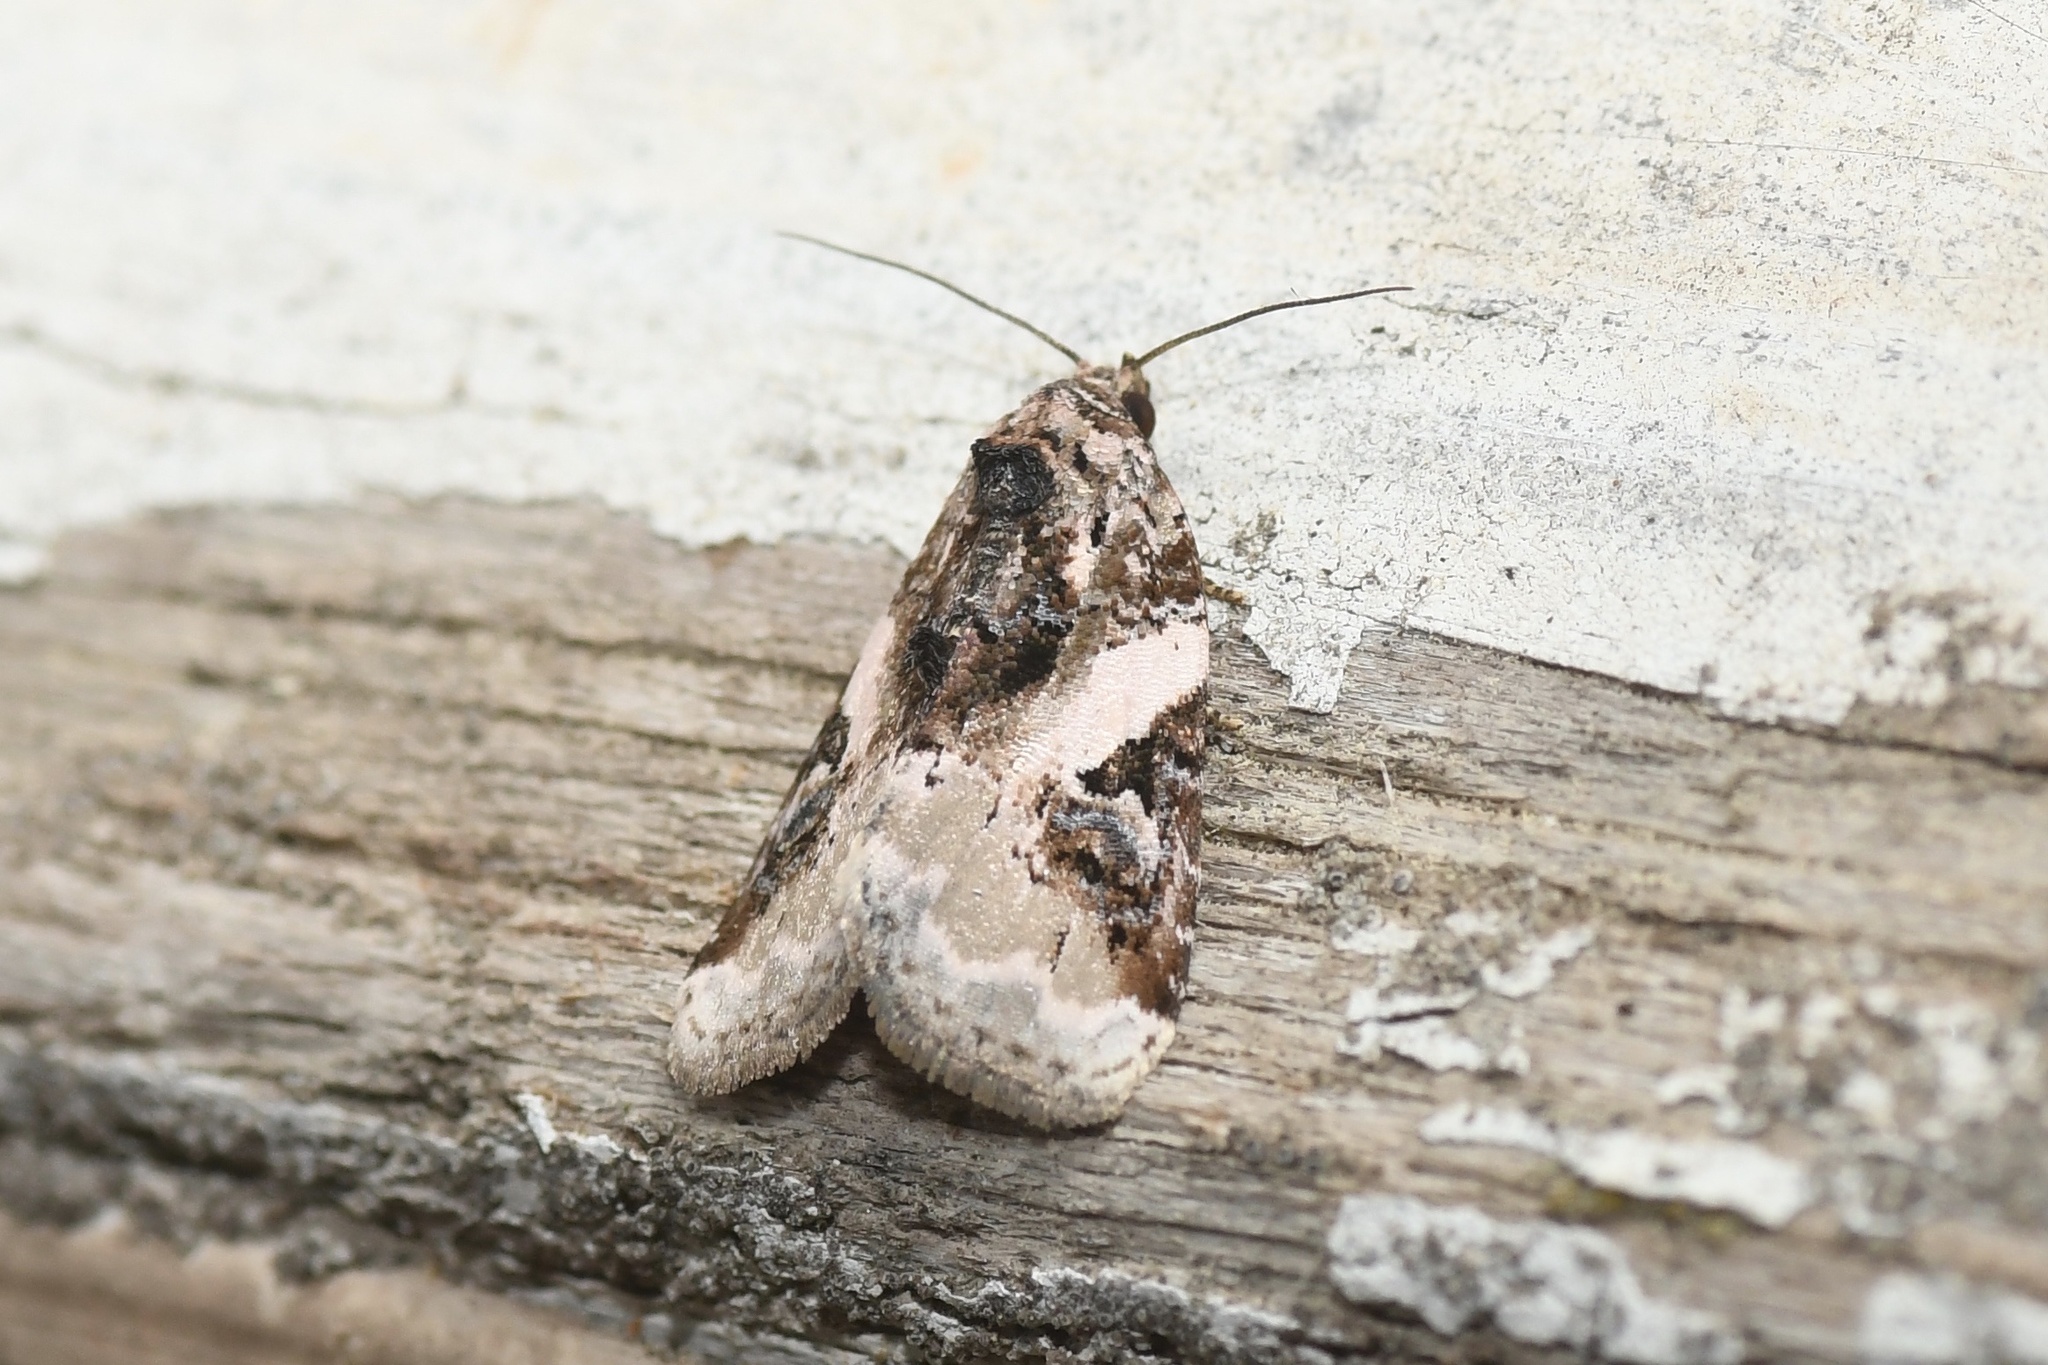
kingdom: Animalia
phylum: Arthropoda
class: Insecta
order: Lepidoptera
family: Noctuidae
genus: Pseudeustrotia
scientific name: Pseudeustrotia carneola
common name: Pink-barred lithacodia moth
